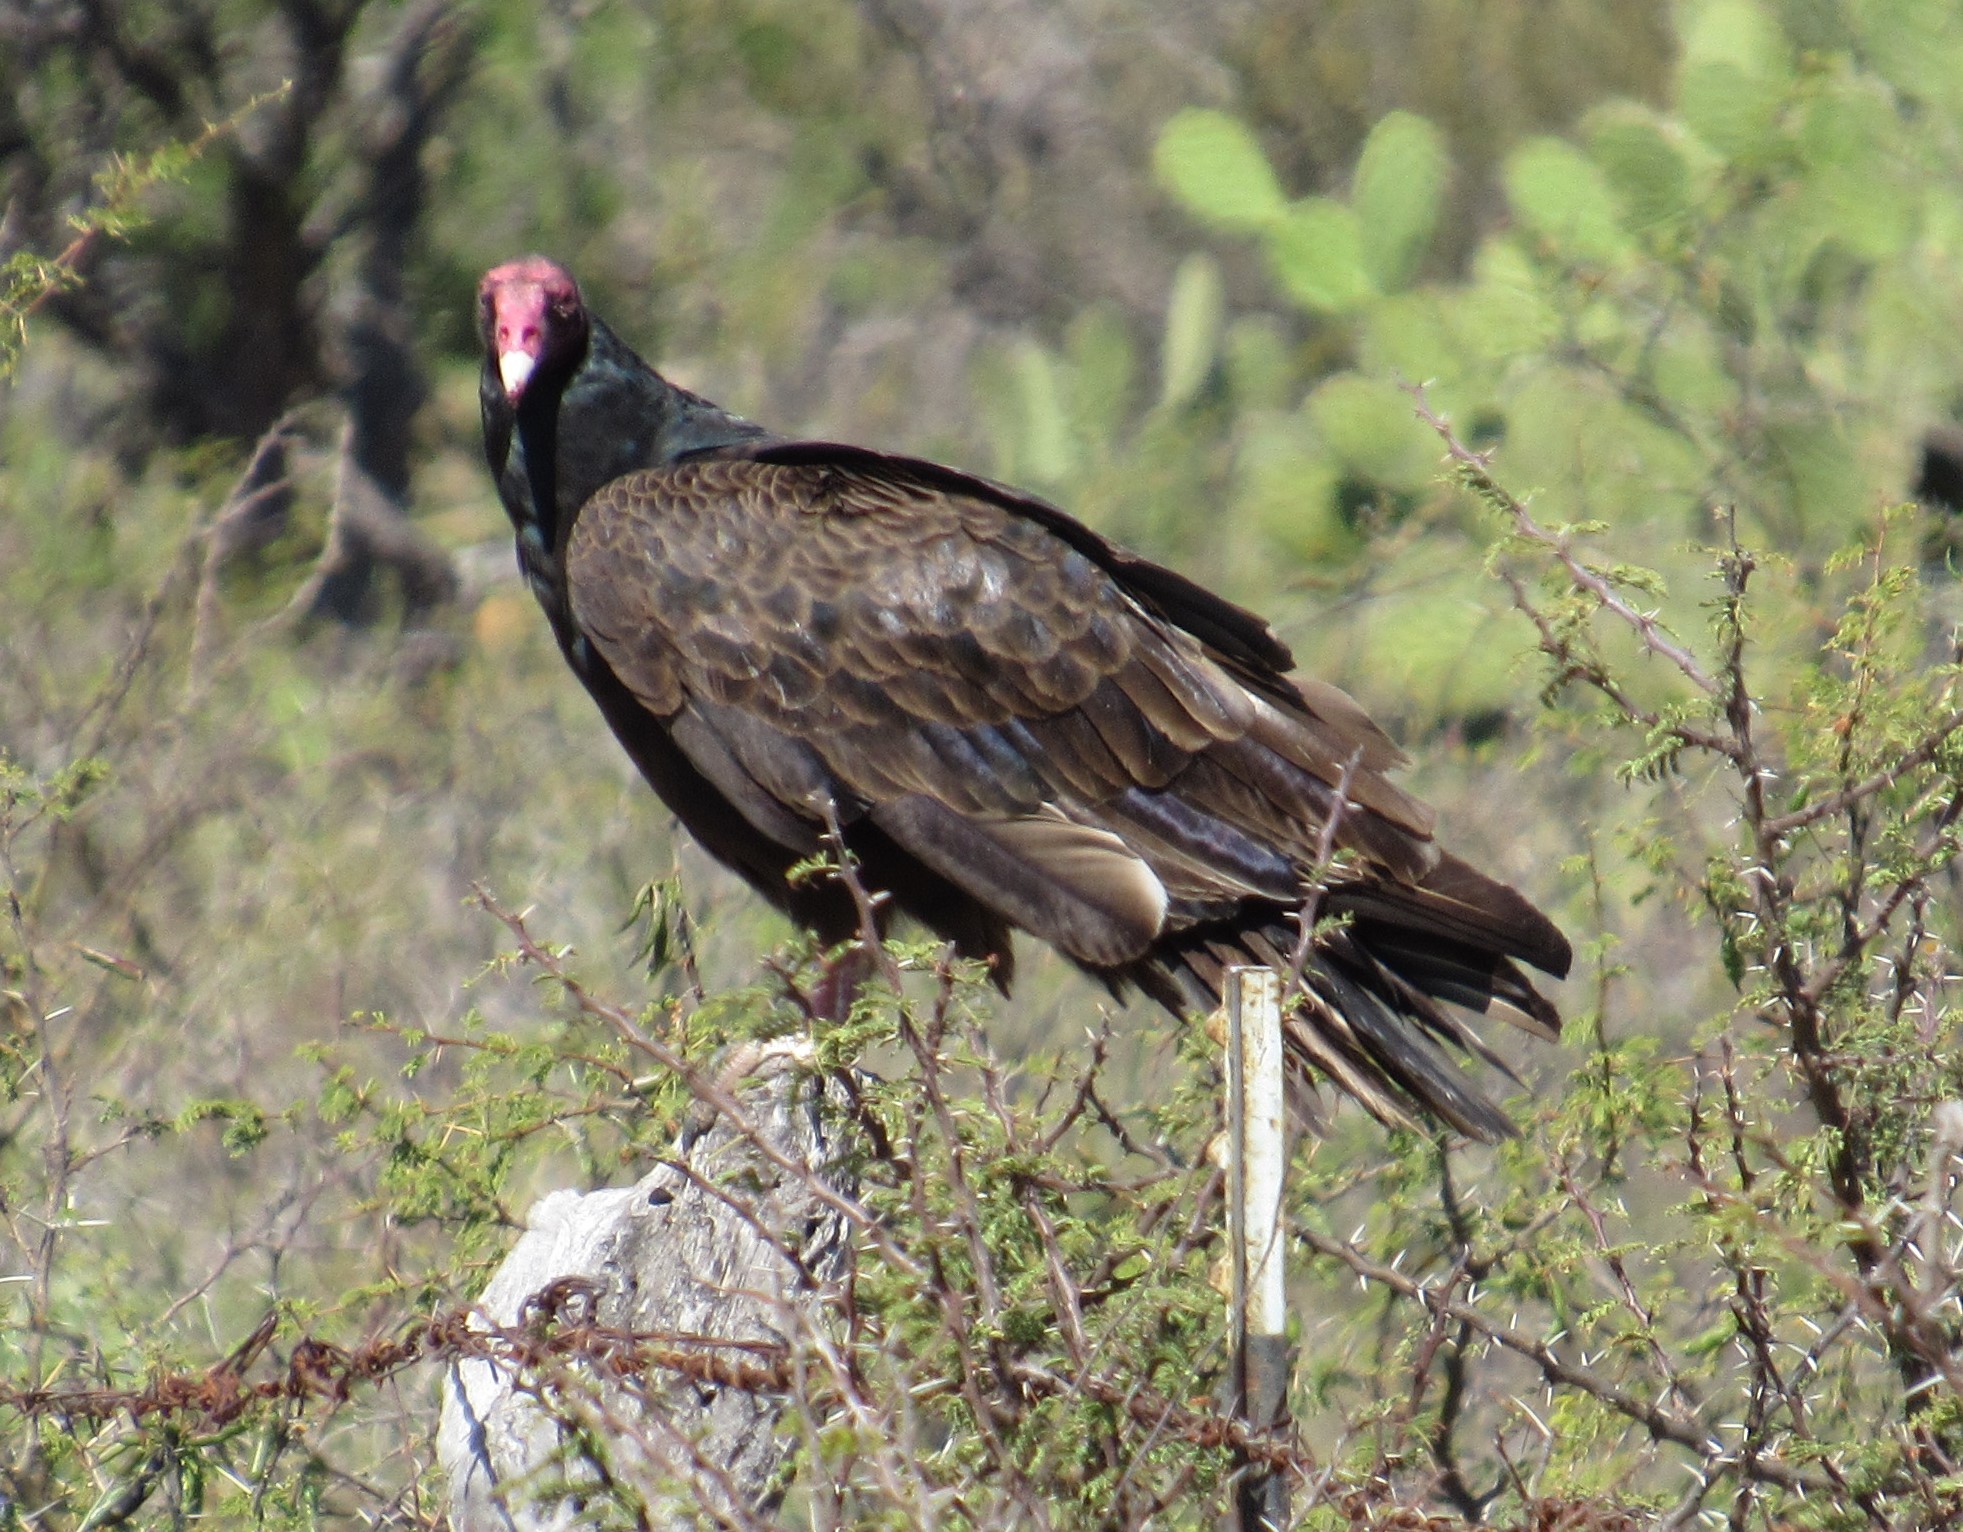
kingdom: Animalia
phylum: Chordata
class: Aves
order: Accipitriformes
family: Cathartidae
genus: Cathartes
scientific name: Cathartes aura
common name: Turkey vulture
